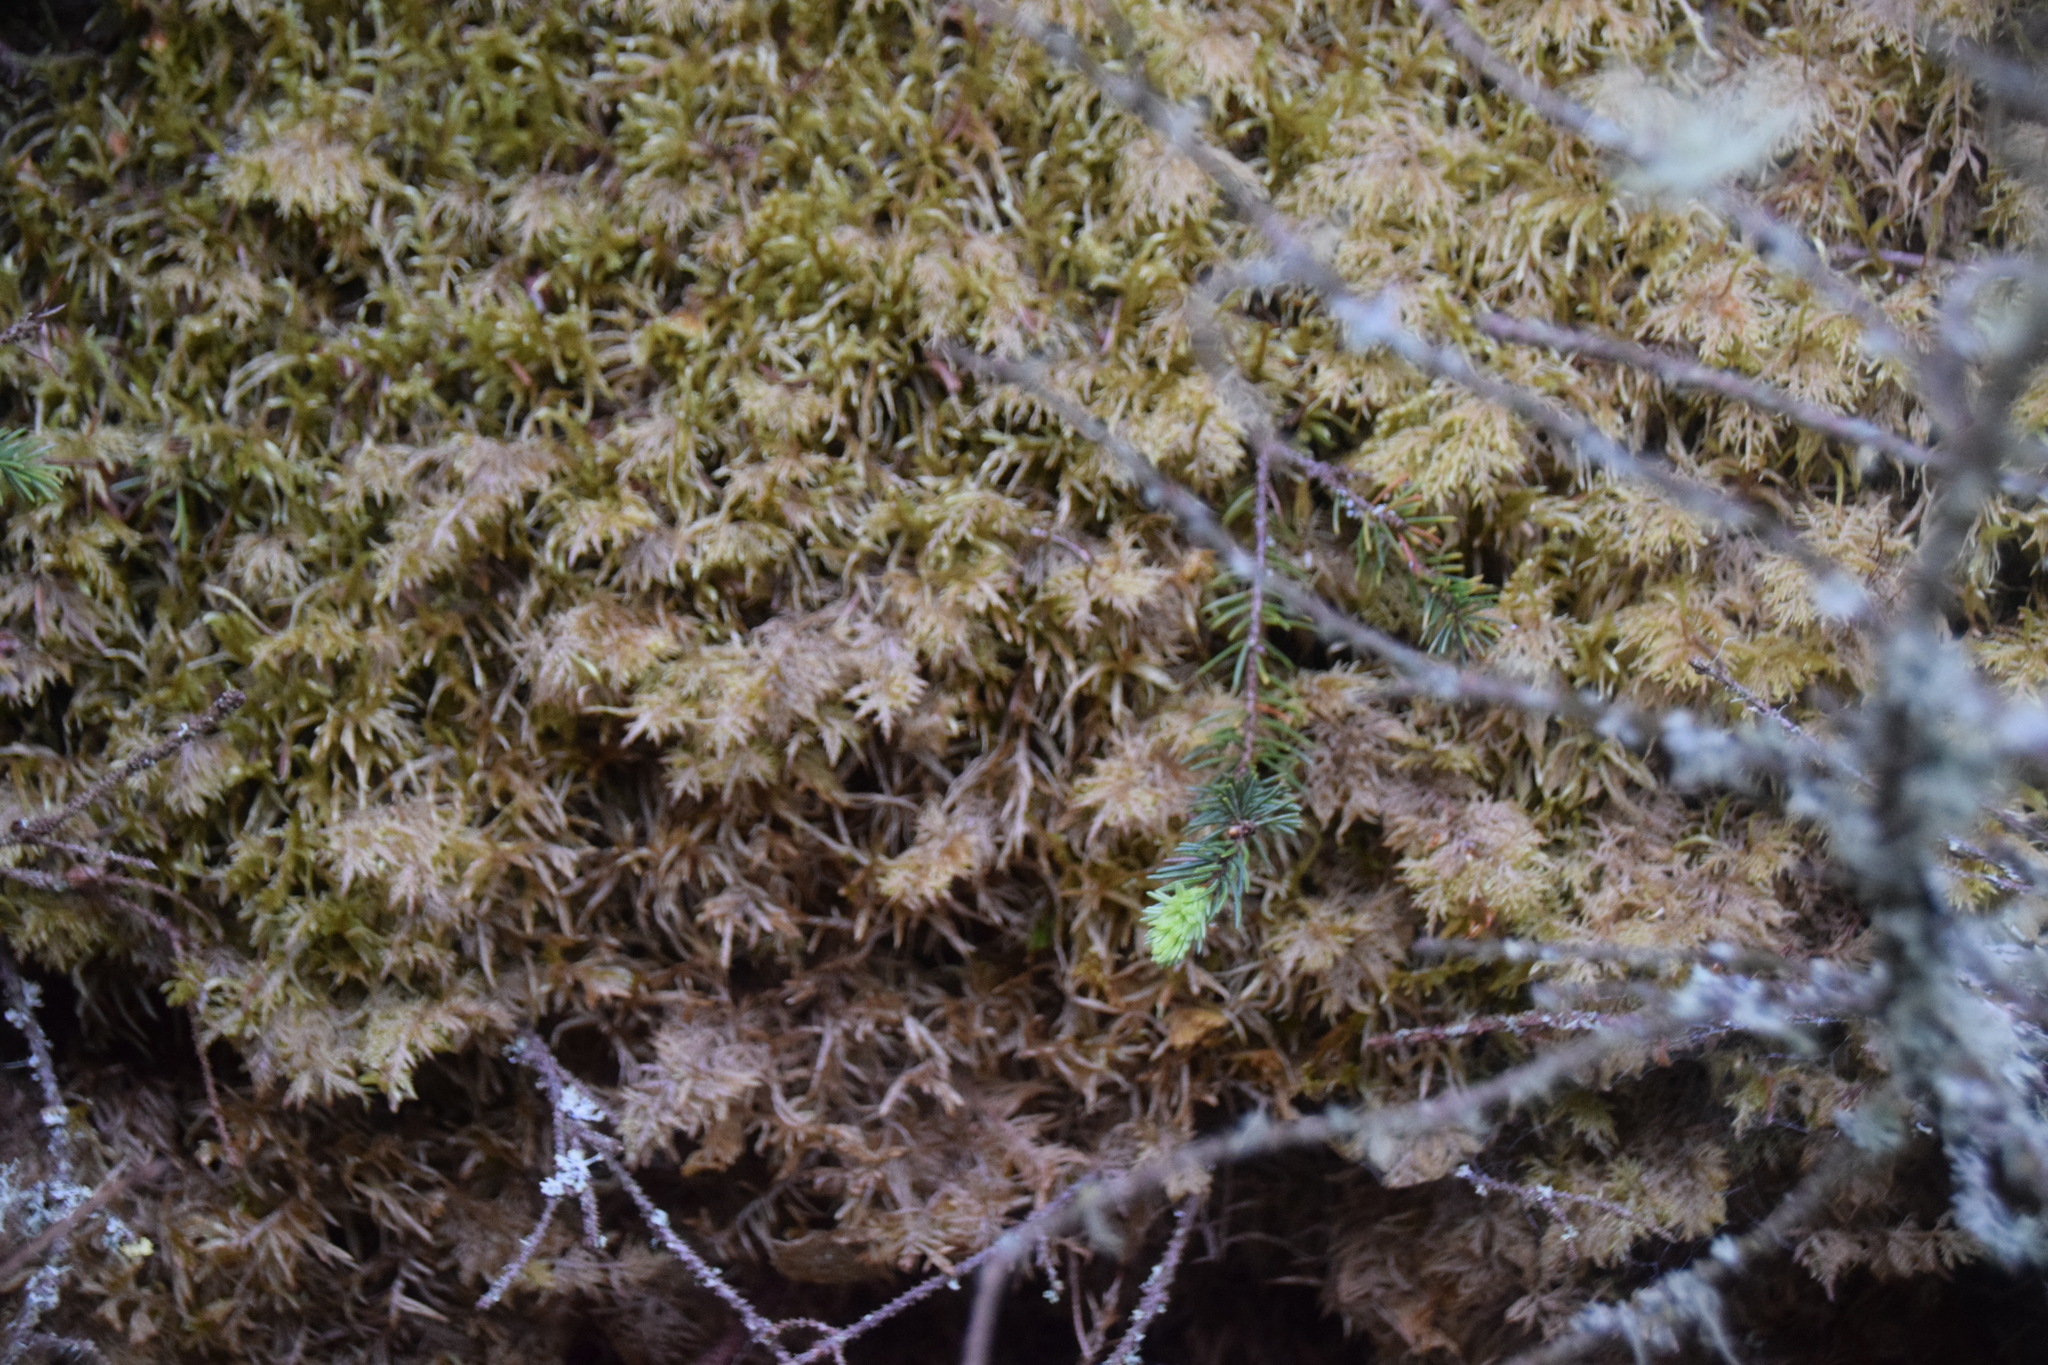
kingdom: Plantae
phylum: Bryophyta
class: Bryopsida
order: Hypnales
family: Hylocomiaceae
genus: Hylocomium
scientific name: Hylocomium splendens
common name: Stairstep moss
